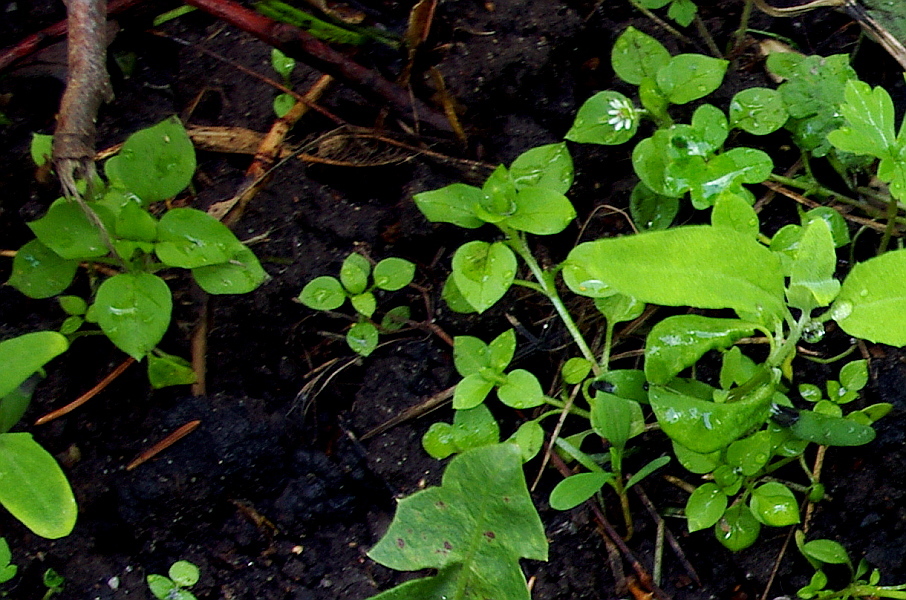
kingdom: Plantae
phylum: Tracheophyta
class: Magnoliopsida
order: Caryophyllales
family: Caryophyllaceae
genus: Stellaria
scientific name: Stellaria media
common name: Common chickweed
